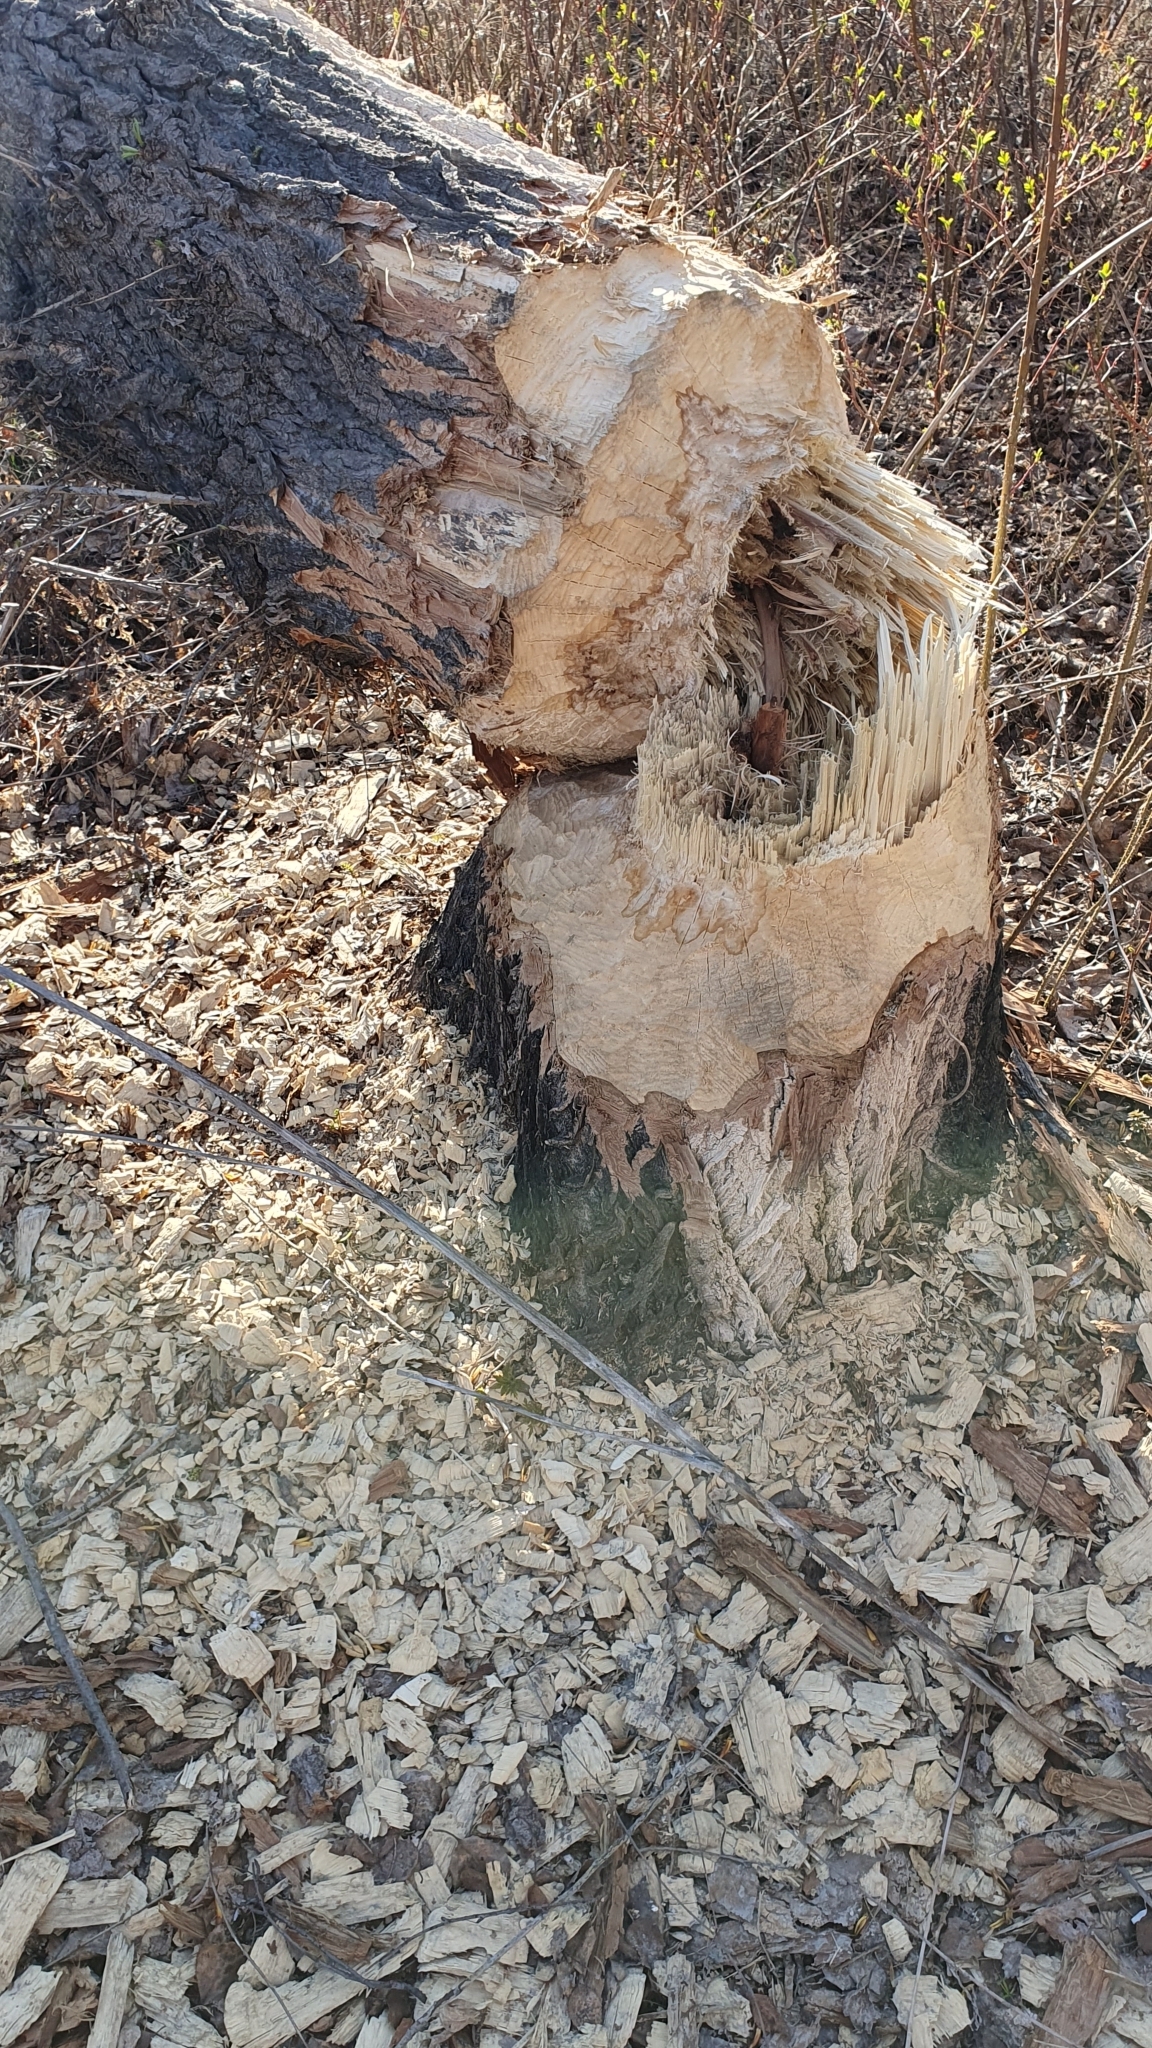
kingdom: Animalia
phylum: Chordata
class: Mammalia
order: Rodentia
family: Castoridae
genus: Castor
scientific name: Castor fiber
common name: Eurasian beaver
